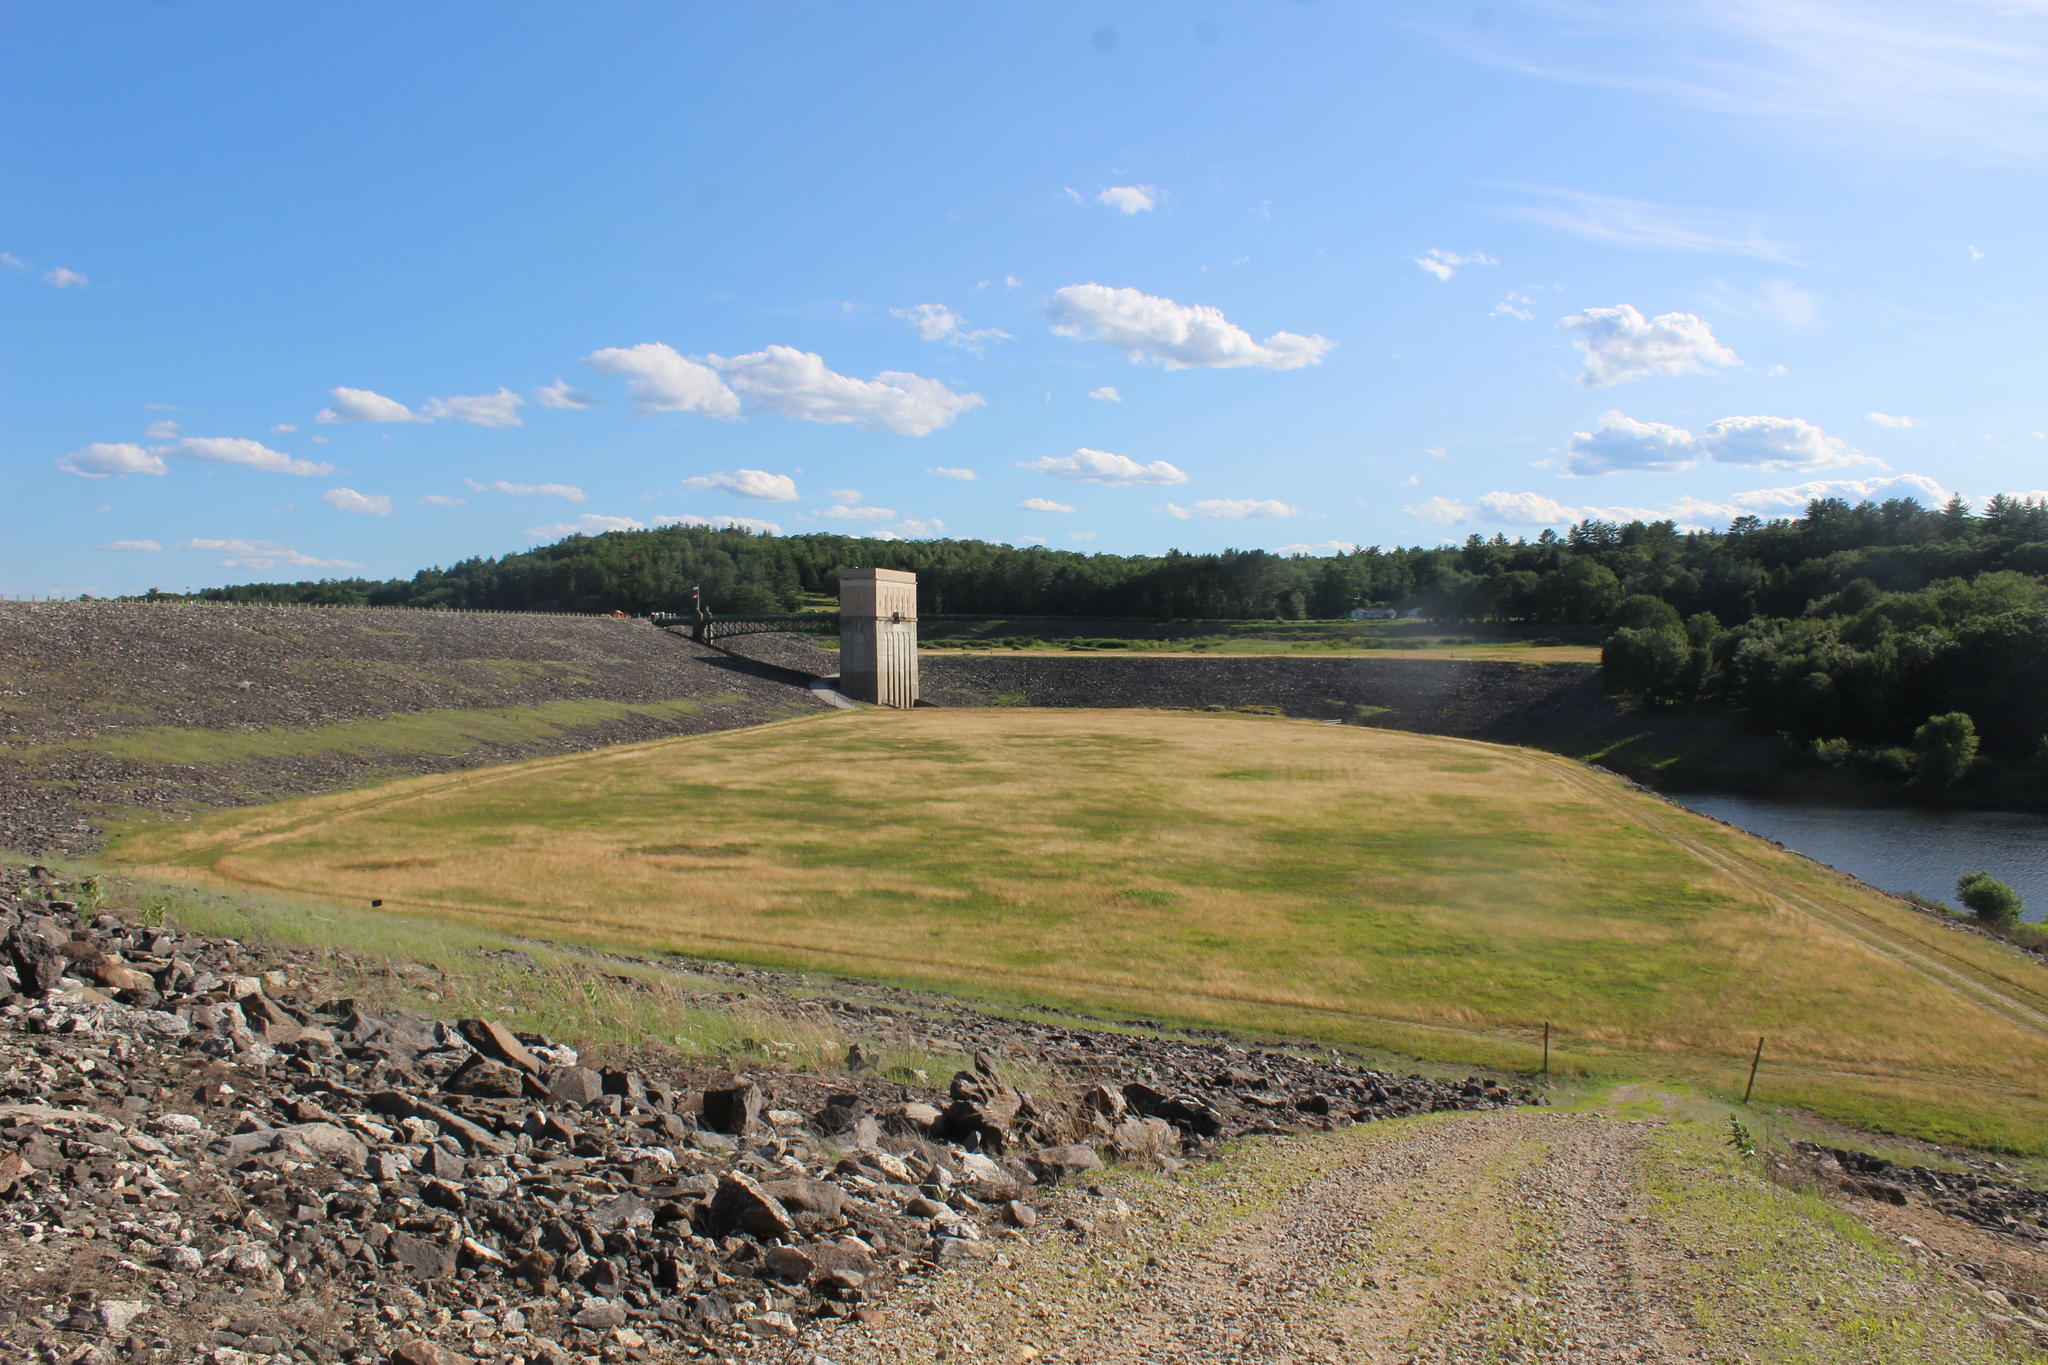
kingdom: Animalia
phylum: Chordata
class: Mammalia
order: Carnivora
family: Canidae
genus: Vulpes
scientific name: Vulpes vulpes
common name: Red fox
